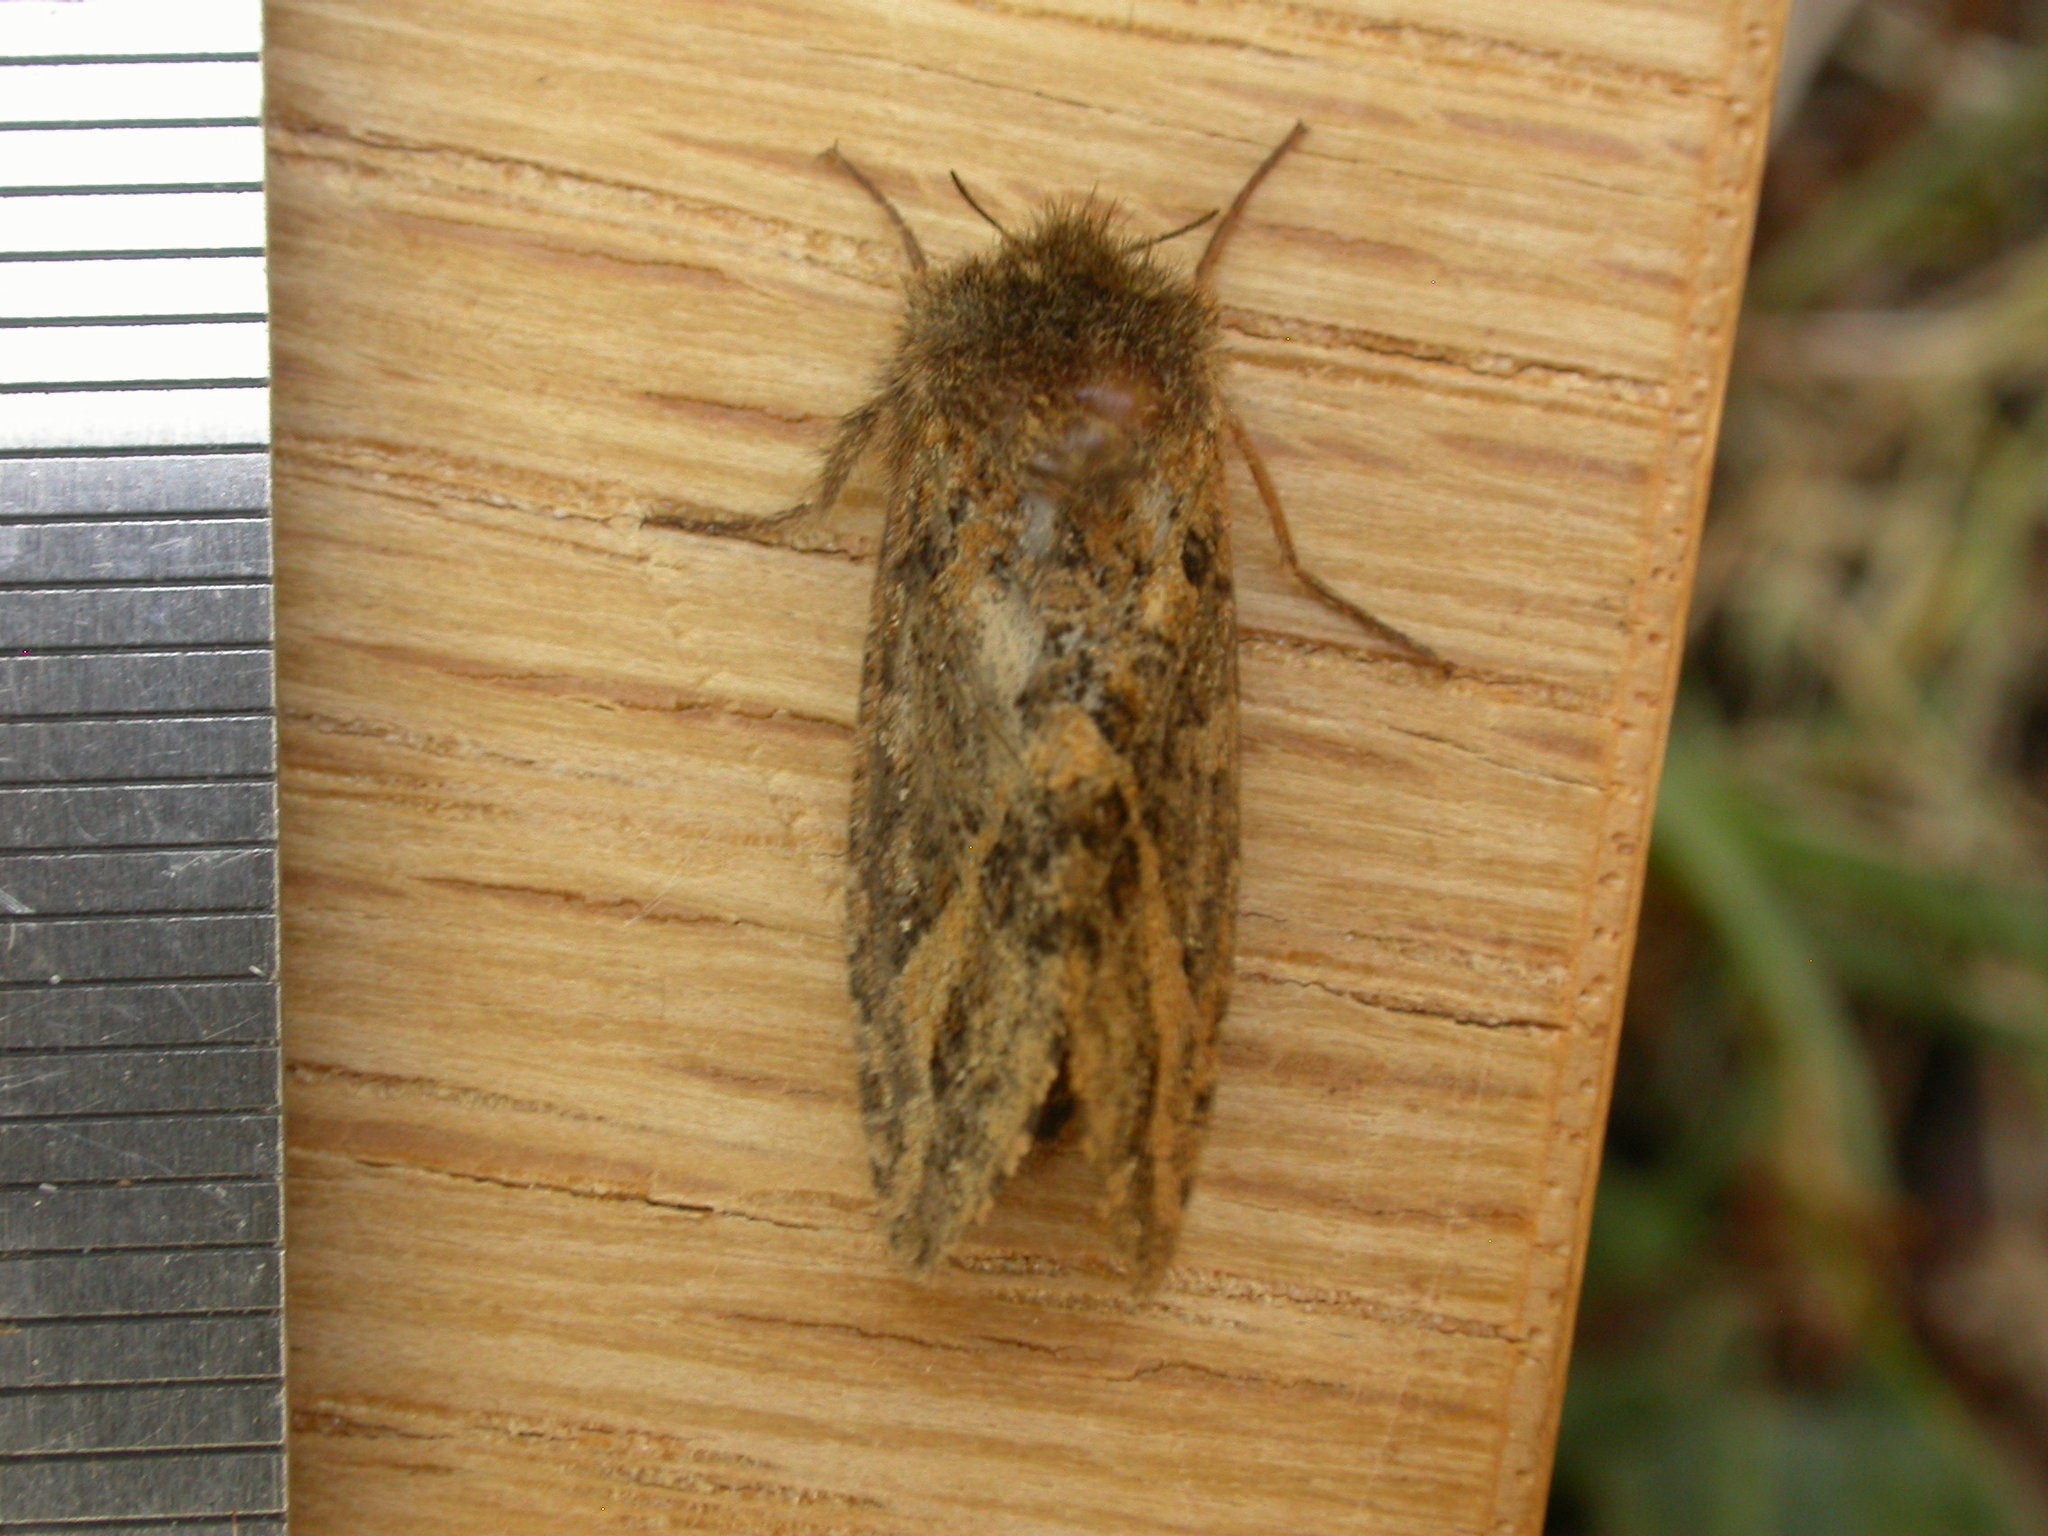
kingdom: Animalia
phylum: Arthropoda
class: Insecta
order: Lepidoptera
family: Hepialidae
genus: Oncopera
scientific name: Oncopera brunneata
